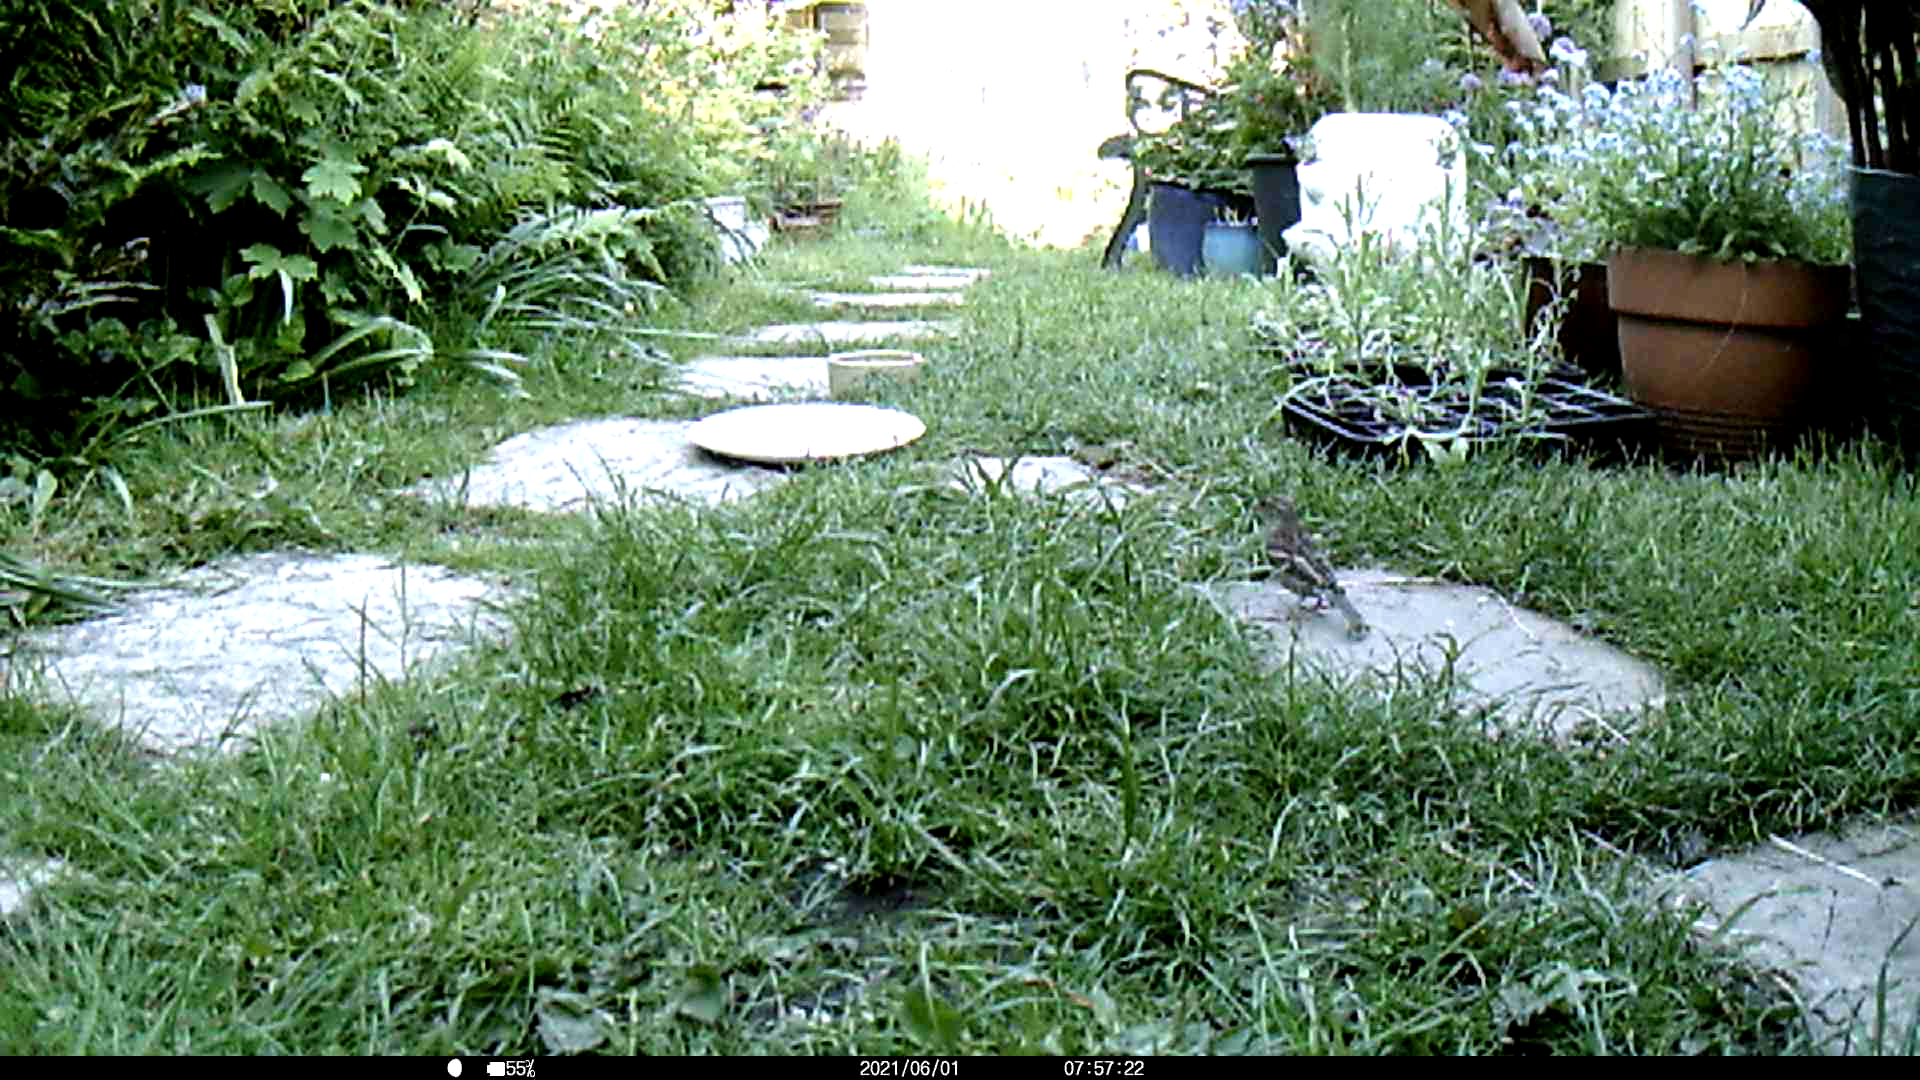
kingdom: Animalia
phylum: Chordata
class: Aves
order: Passeriformes
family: Passeridae
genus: Passer
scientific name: Passer domesticus
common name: House sparrow
